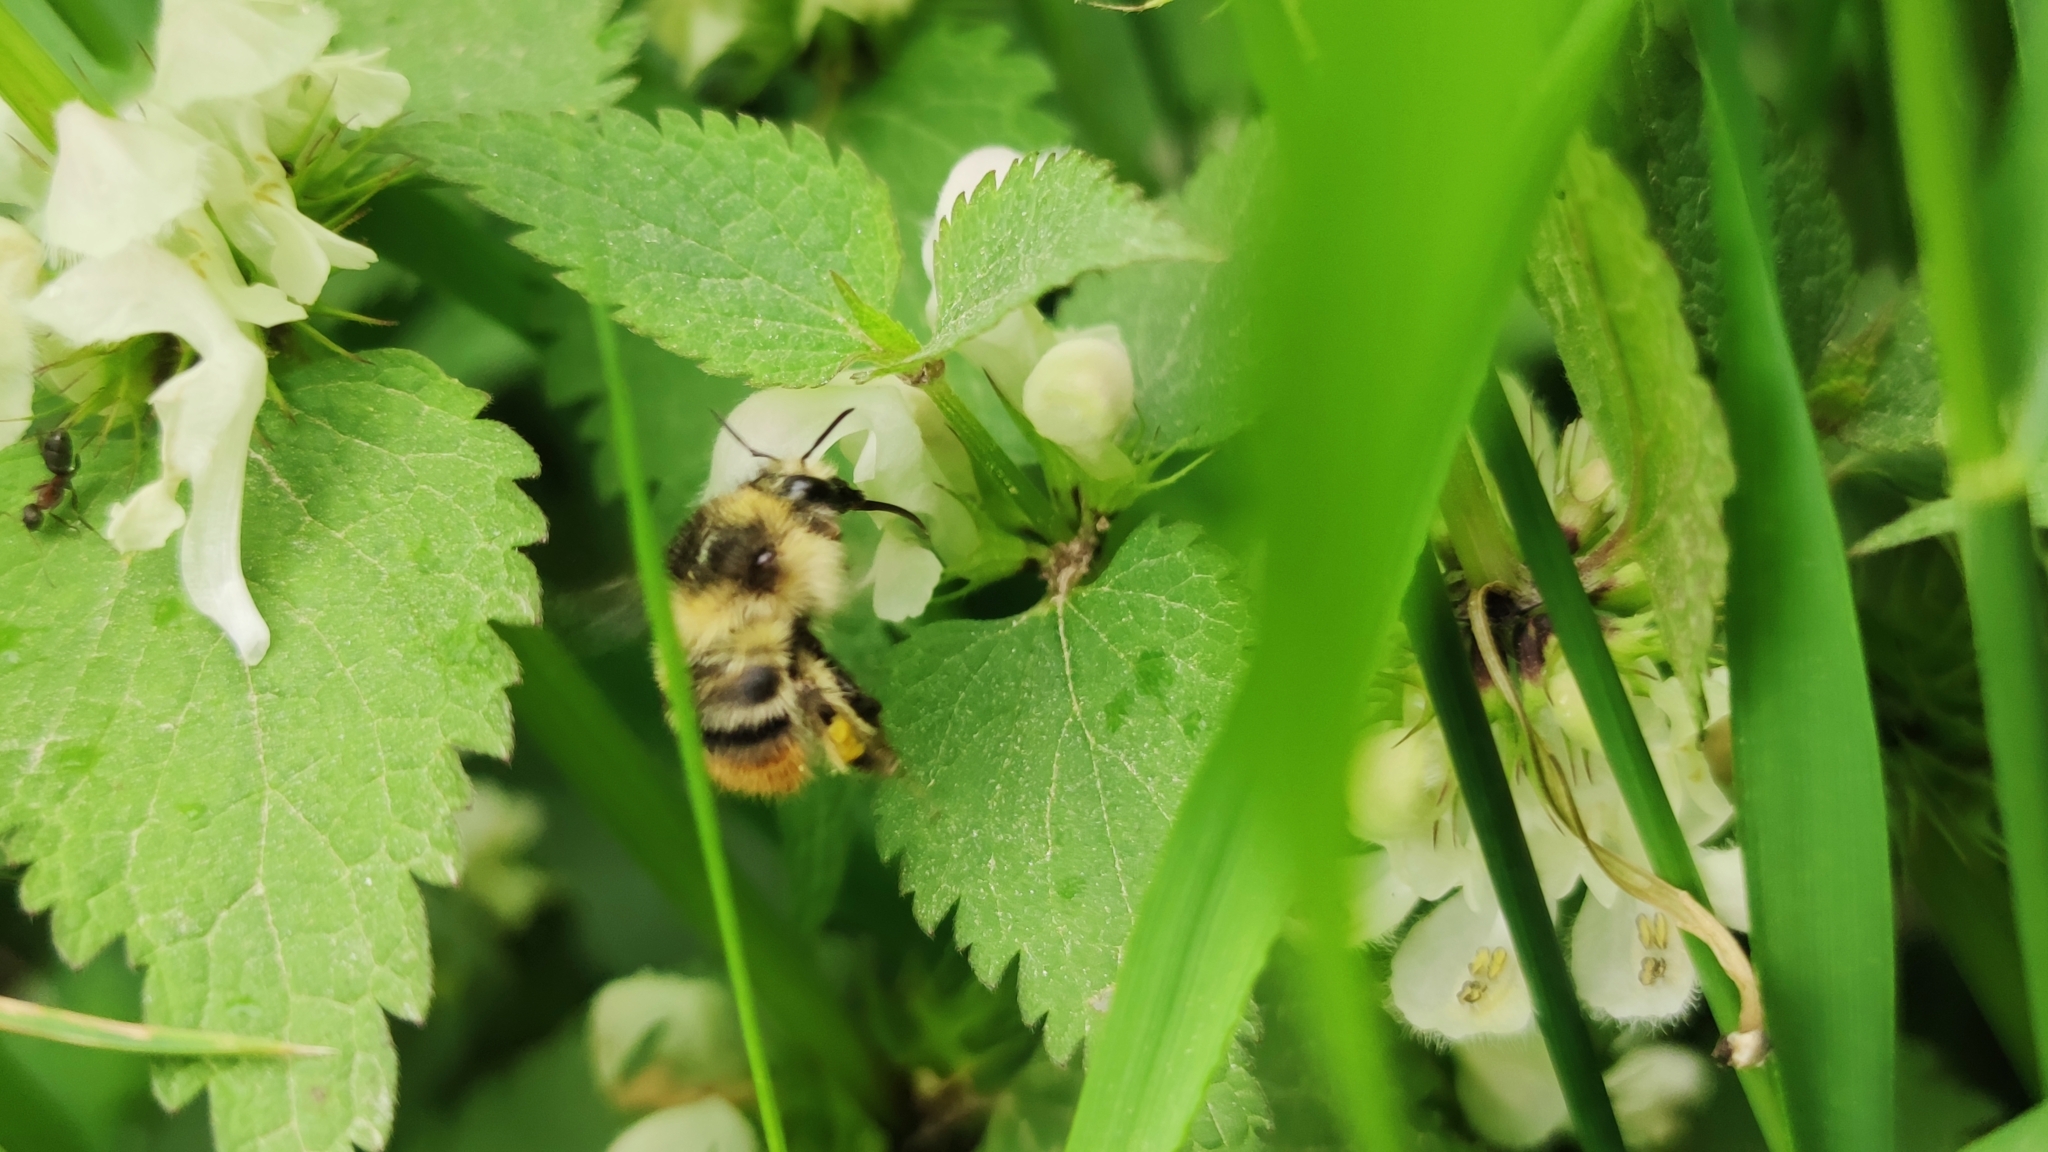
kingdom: Animalia
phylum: Arthropoda
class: Insecta
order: Hymenoptera
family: Apidae
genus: Bombus
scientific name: Bombus sylvarum
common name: Shrill carder bee
